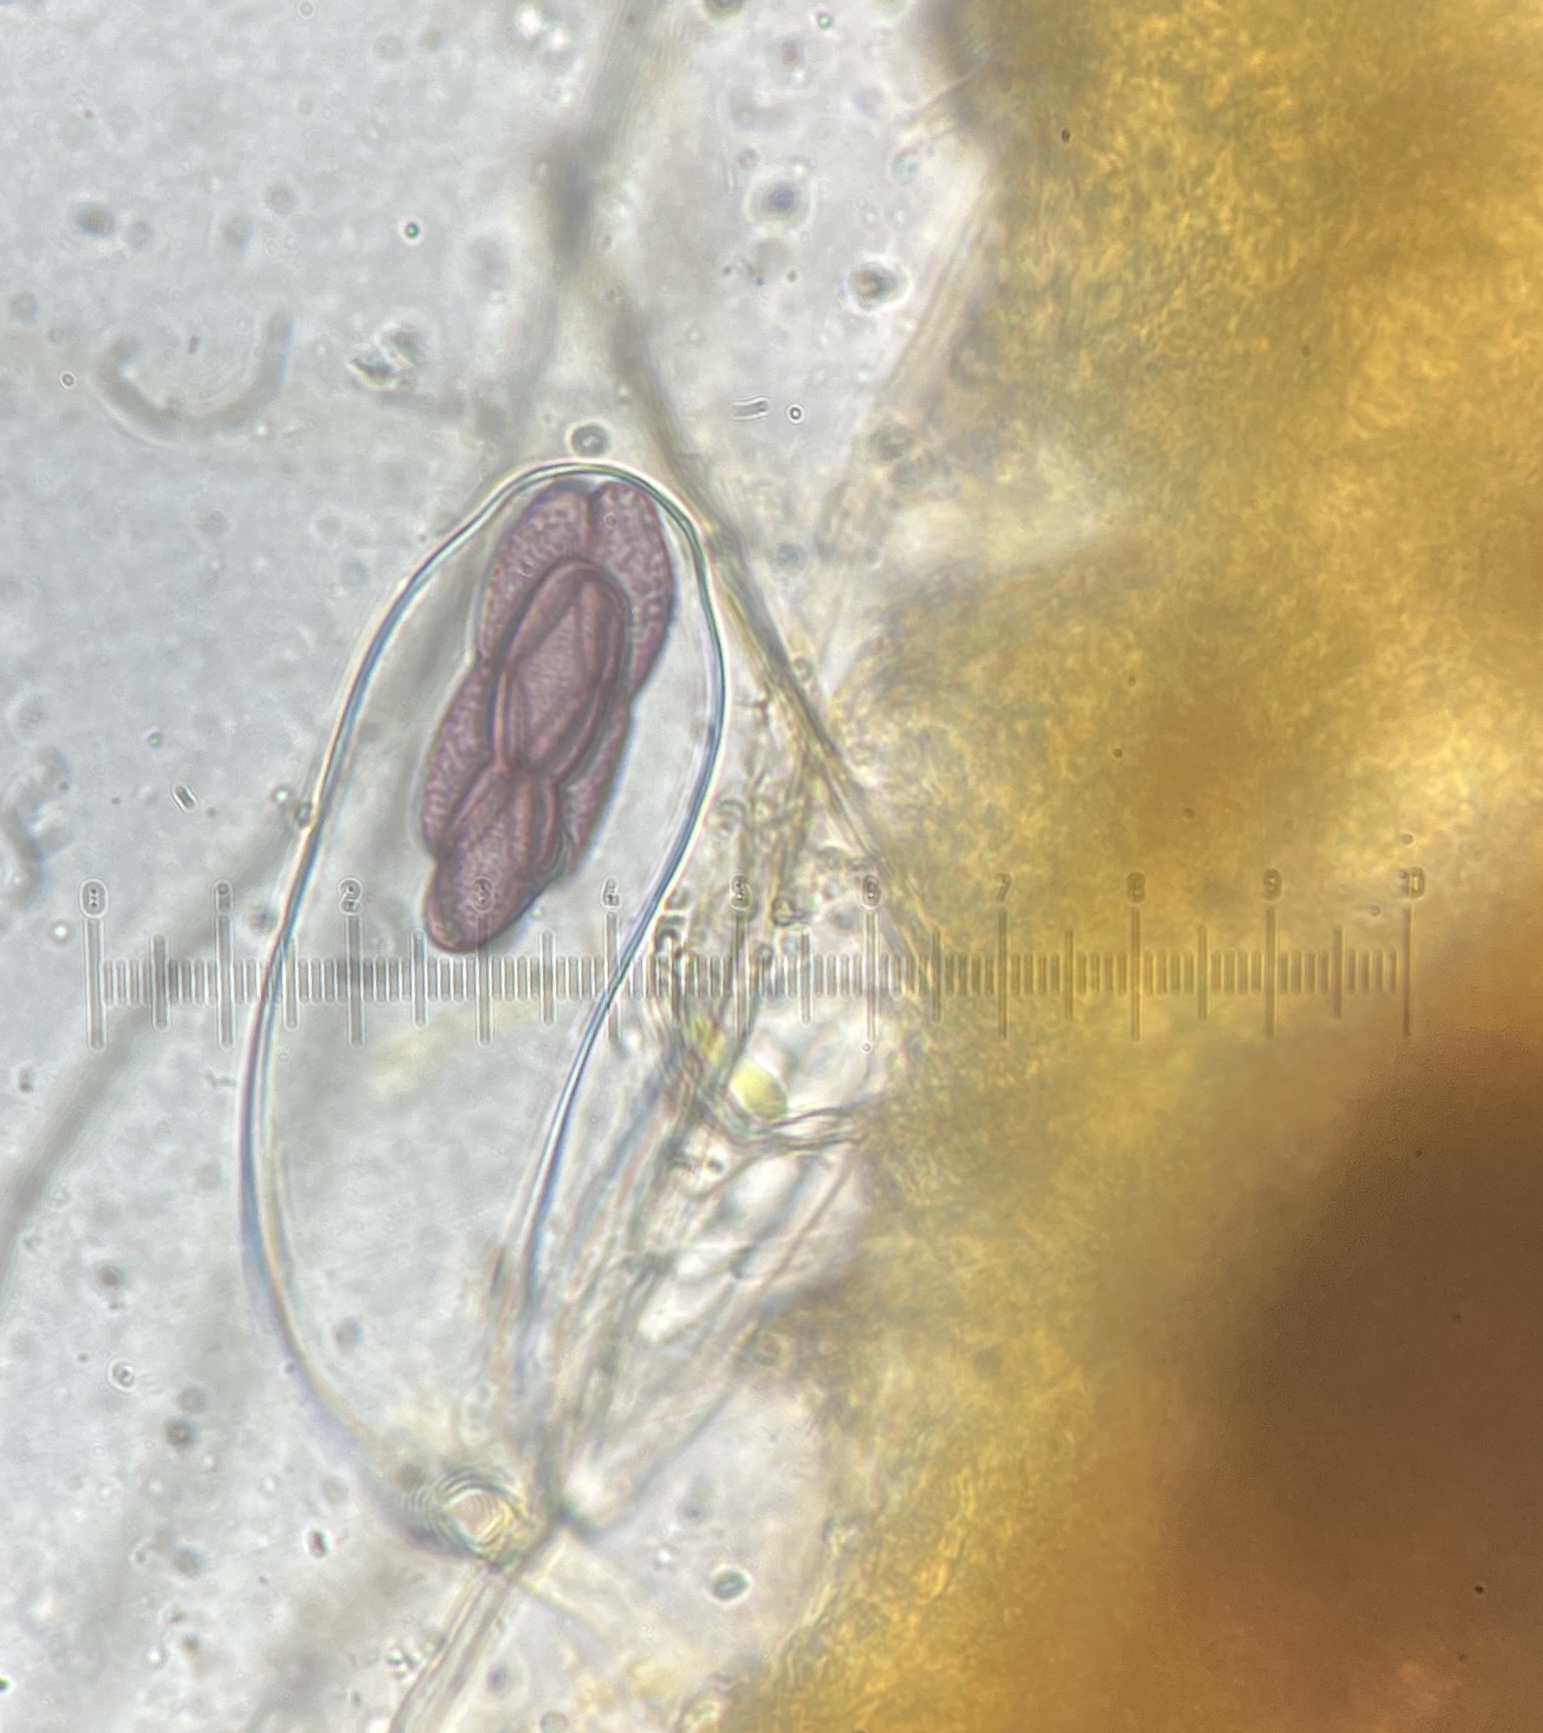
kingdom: Fungi
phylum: Ascomycota
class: Pezizomycetes
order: Pezizales
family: Ascobolaceae
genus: Saccobolus
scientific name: Saccobolus citrinus
